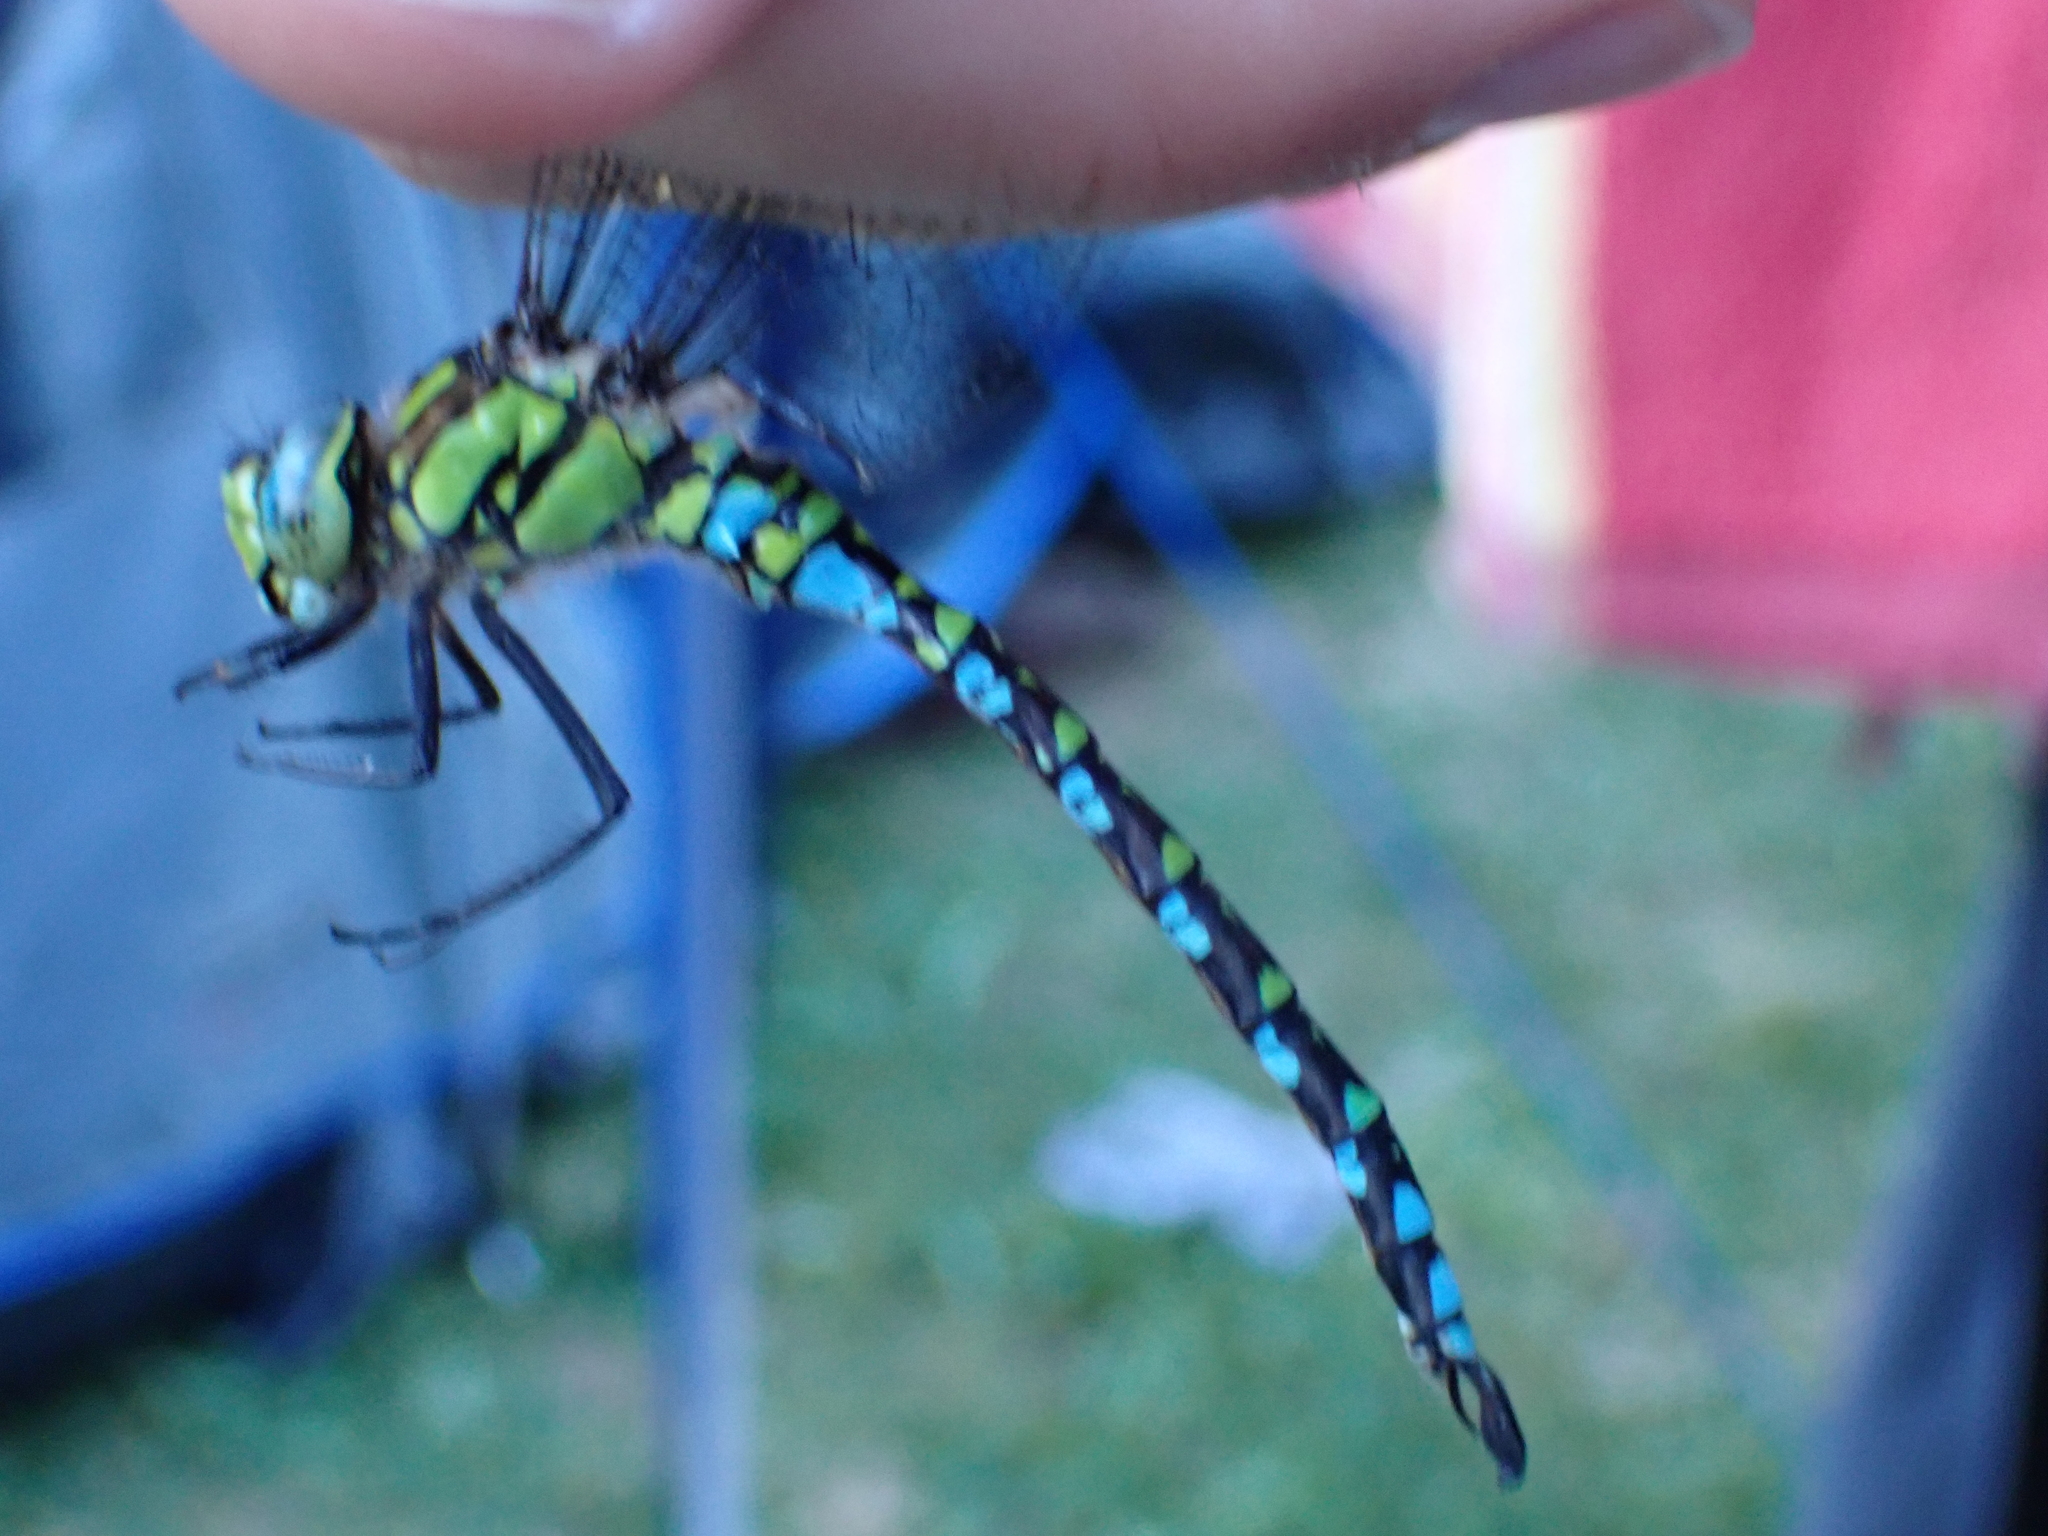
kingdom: Animalia
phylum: Arthropoda
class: Insecta
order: Odonata
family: Aeshnidae
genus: Aeshna
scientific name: Aeshna cyanea
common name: Southern hawker
